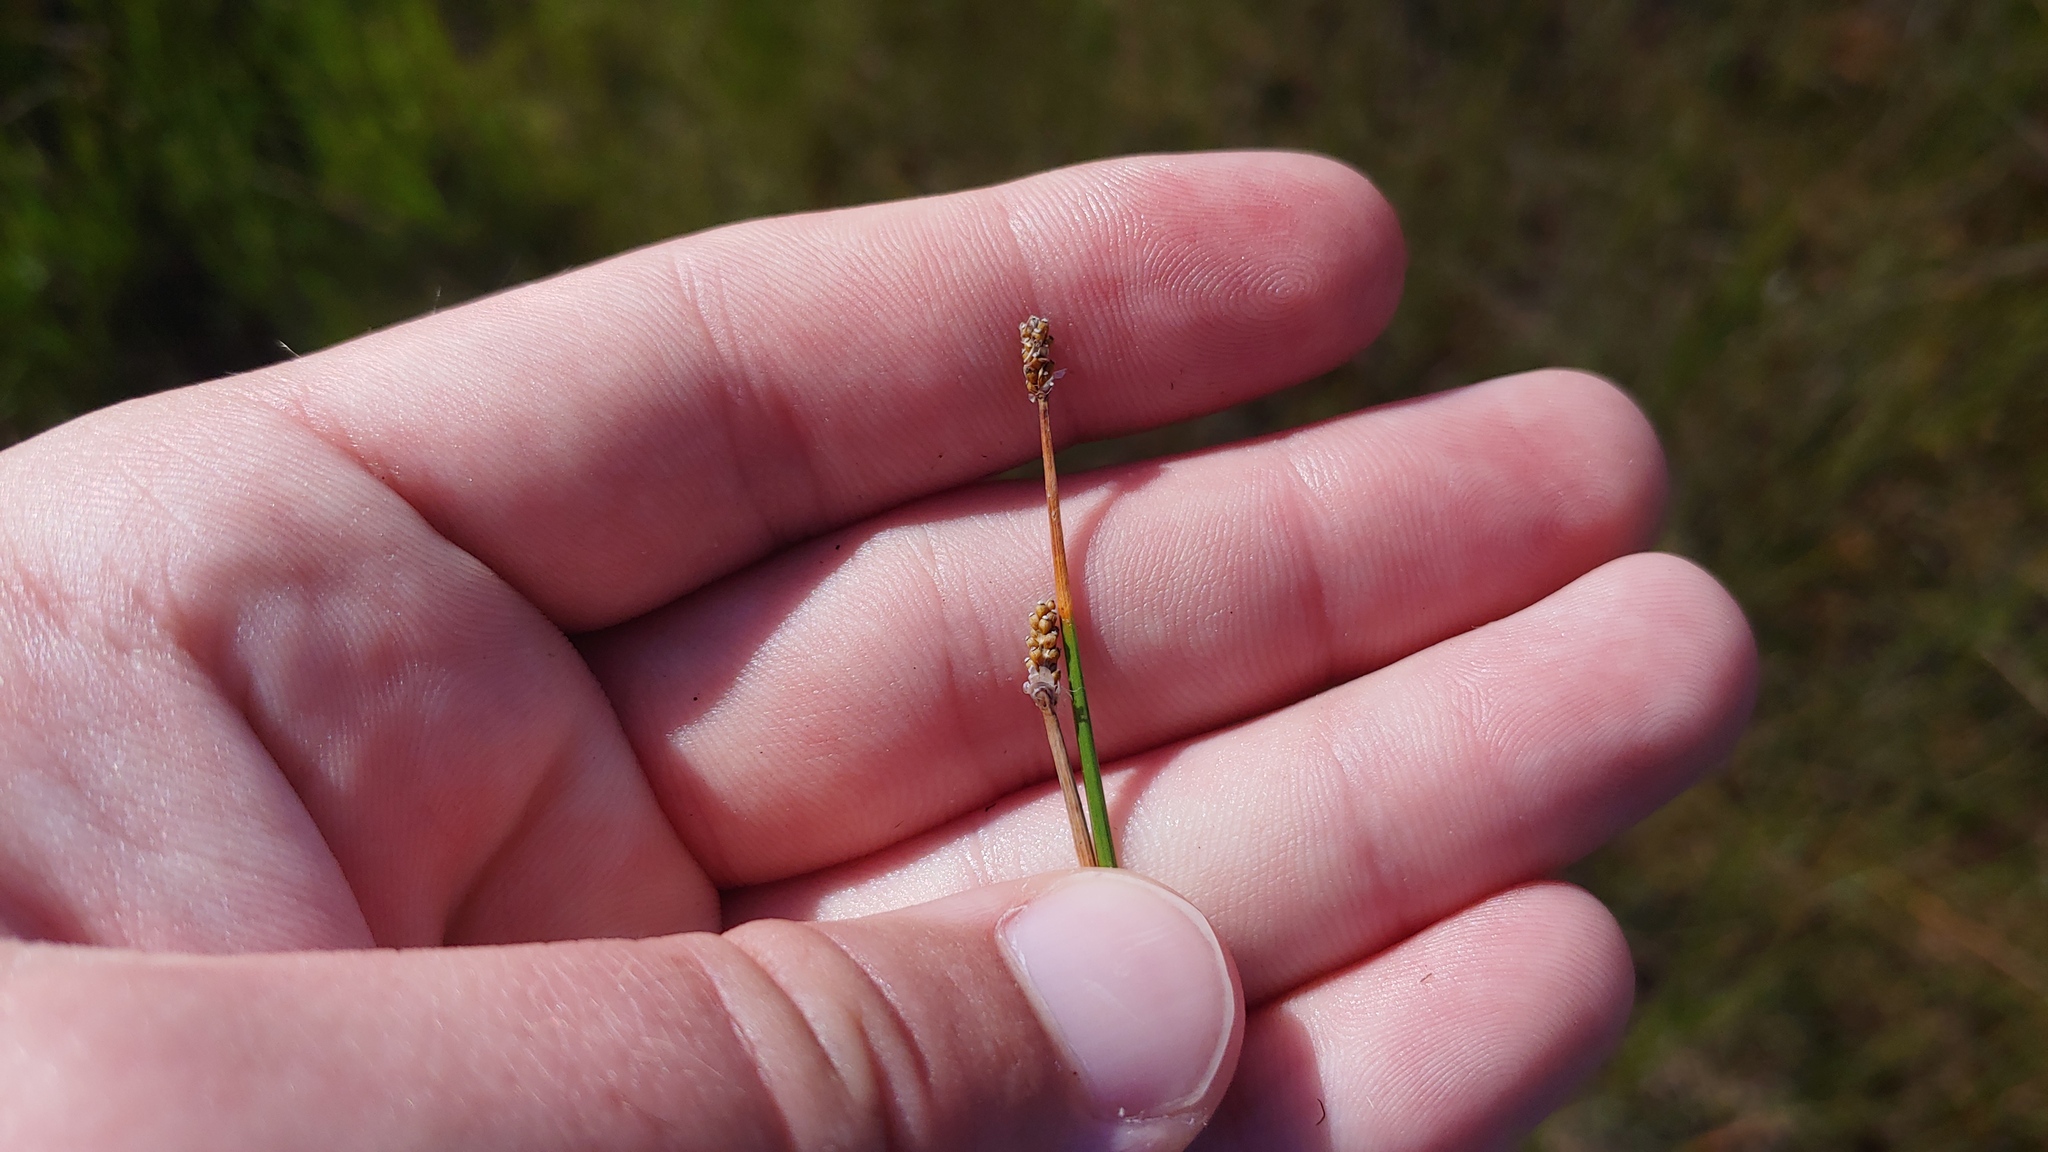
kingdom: Plantae
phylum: Tracheophyta
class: Liliopsida
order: Poales
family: Cyperaceae
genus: Eleocharis
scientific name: Eleocharis elliptica
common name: Capitate spikerush
